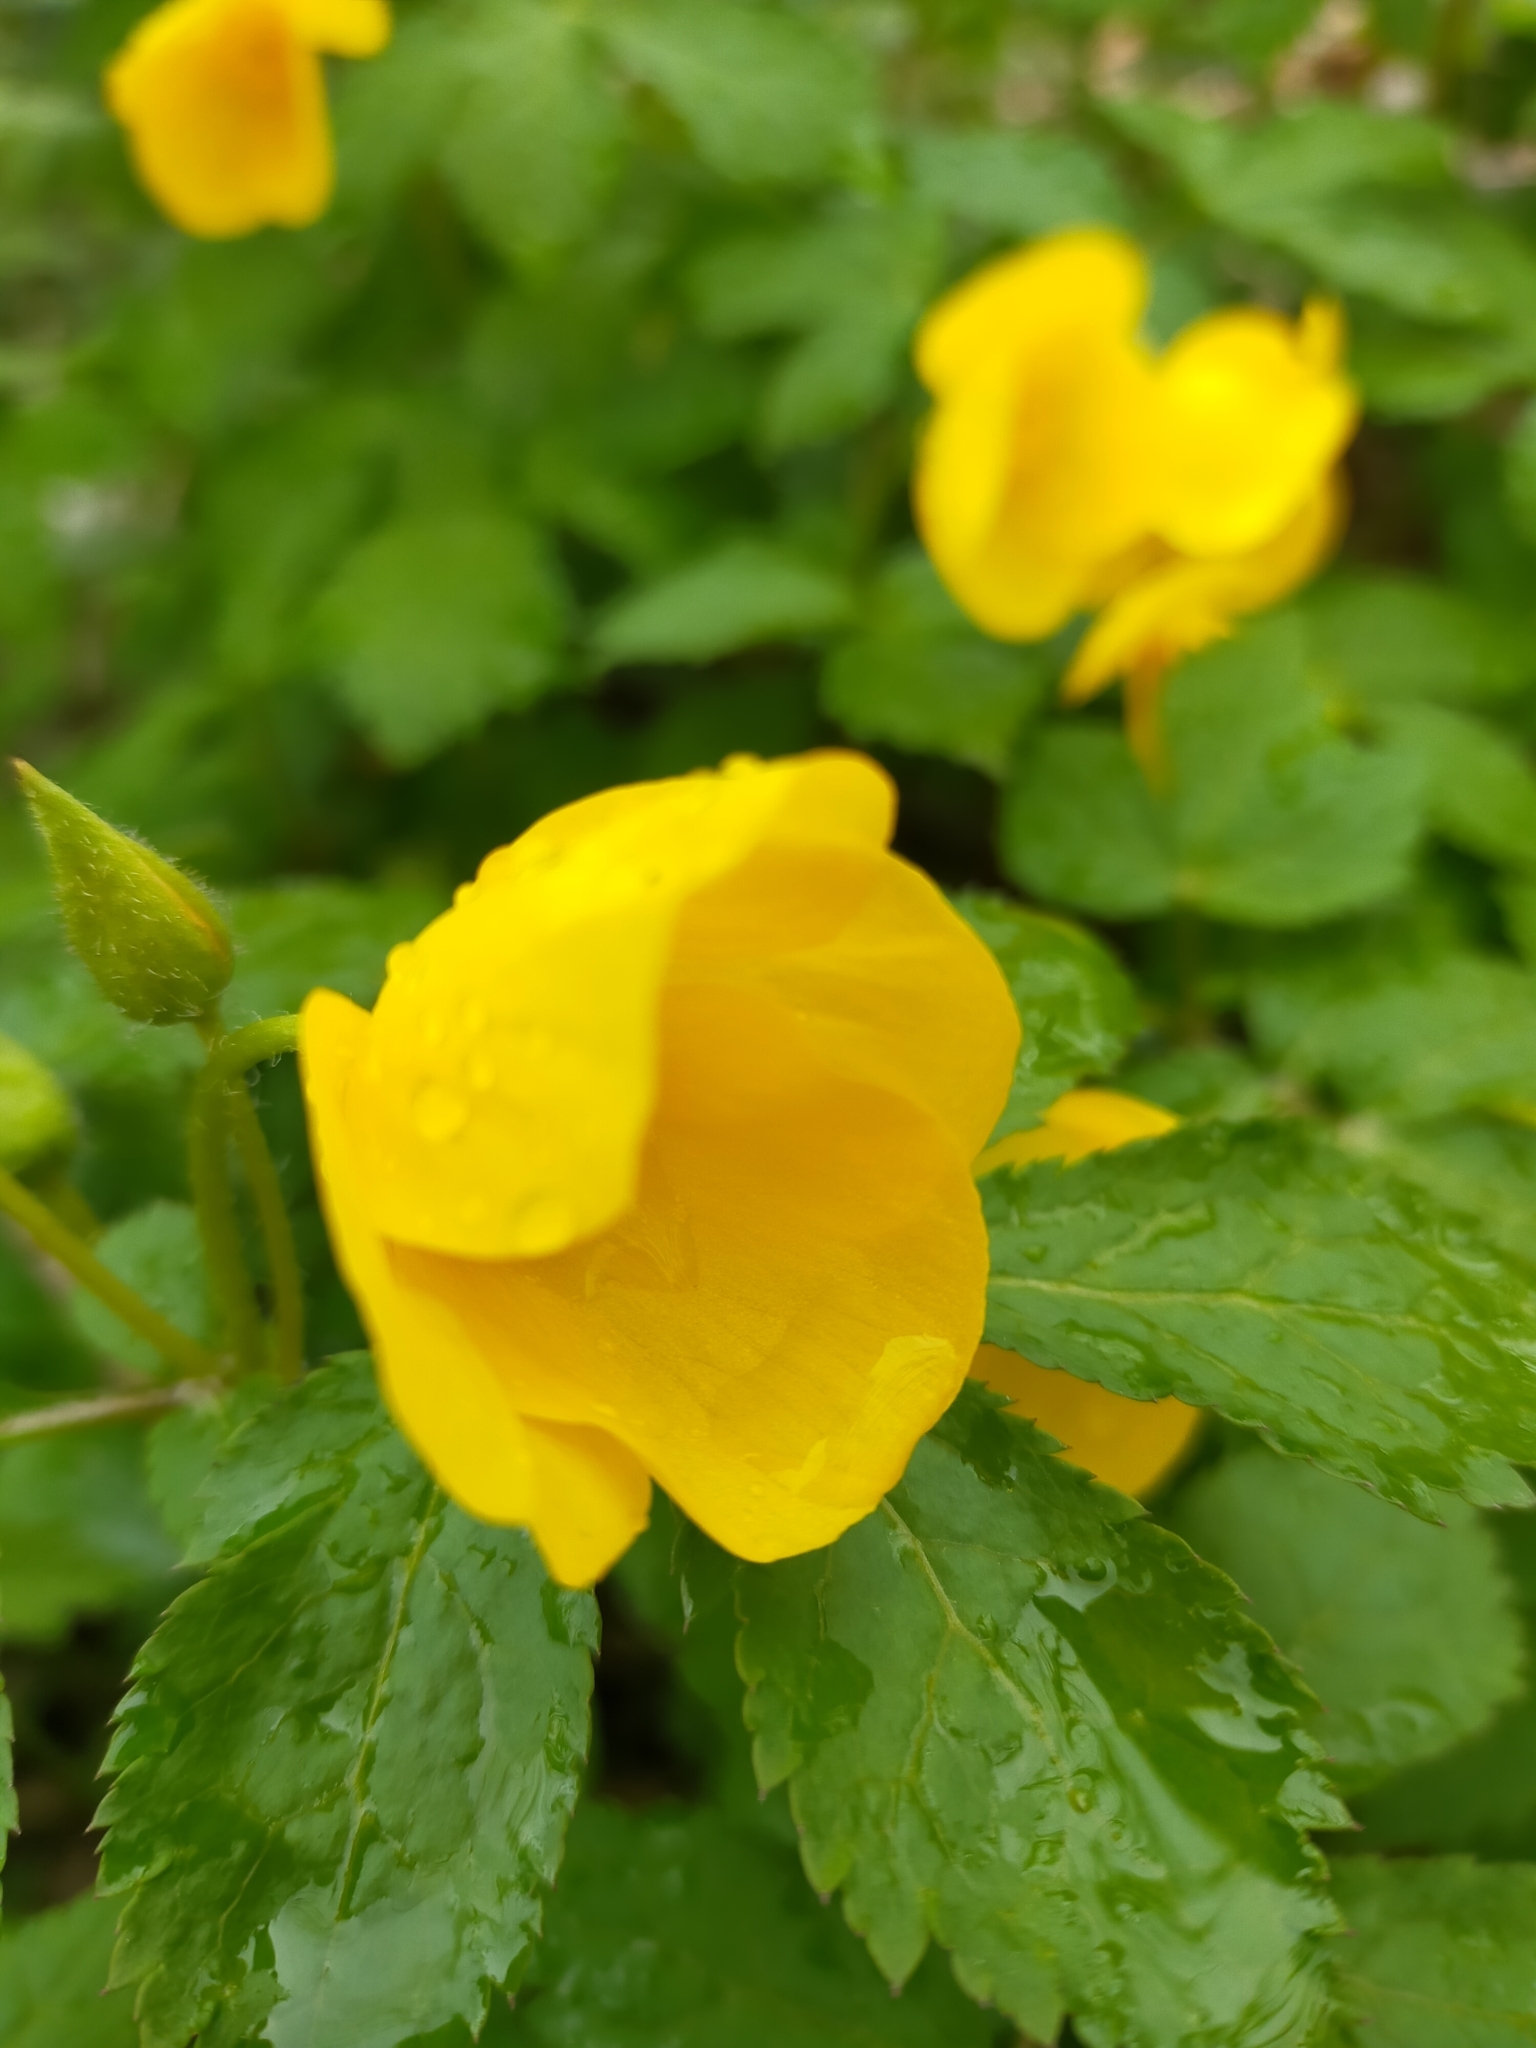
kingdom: Plantae
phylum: Tracheophyta
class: Magnoliopsida
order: Ranunculales
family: Papaveraceae
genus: Hylomecon
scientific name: Hylomecon vernalis
